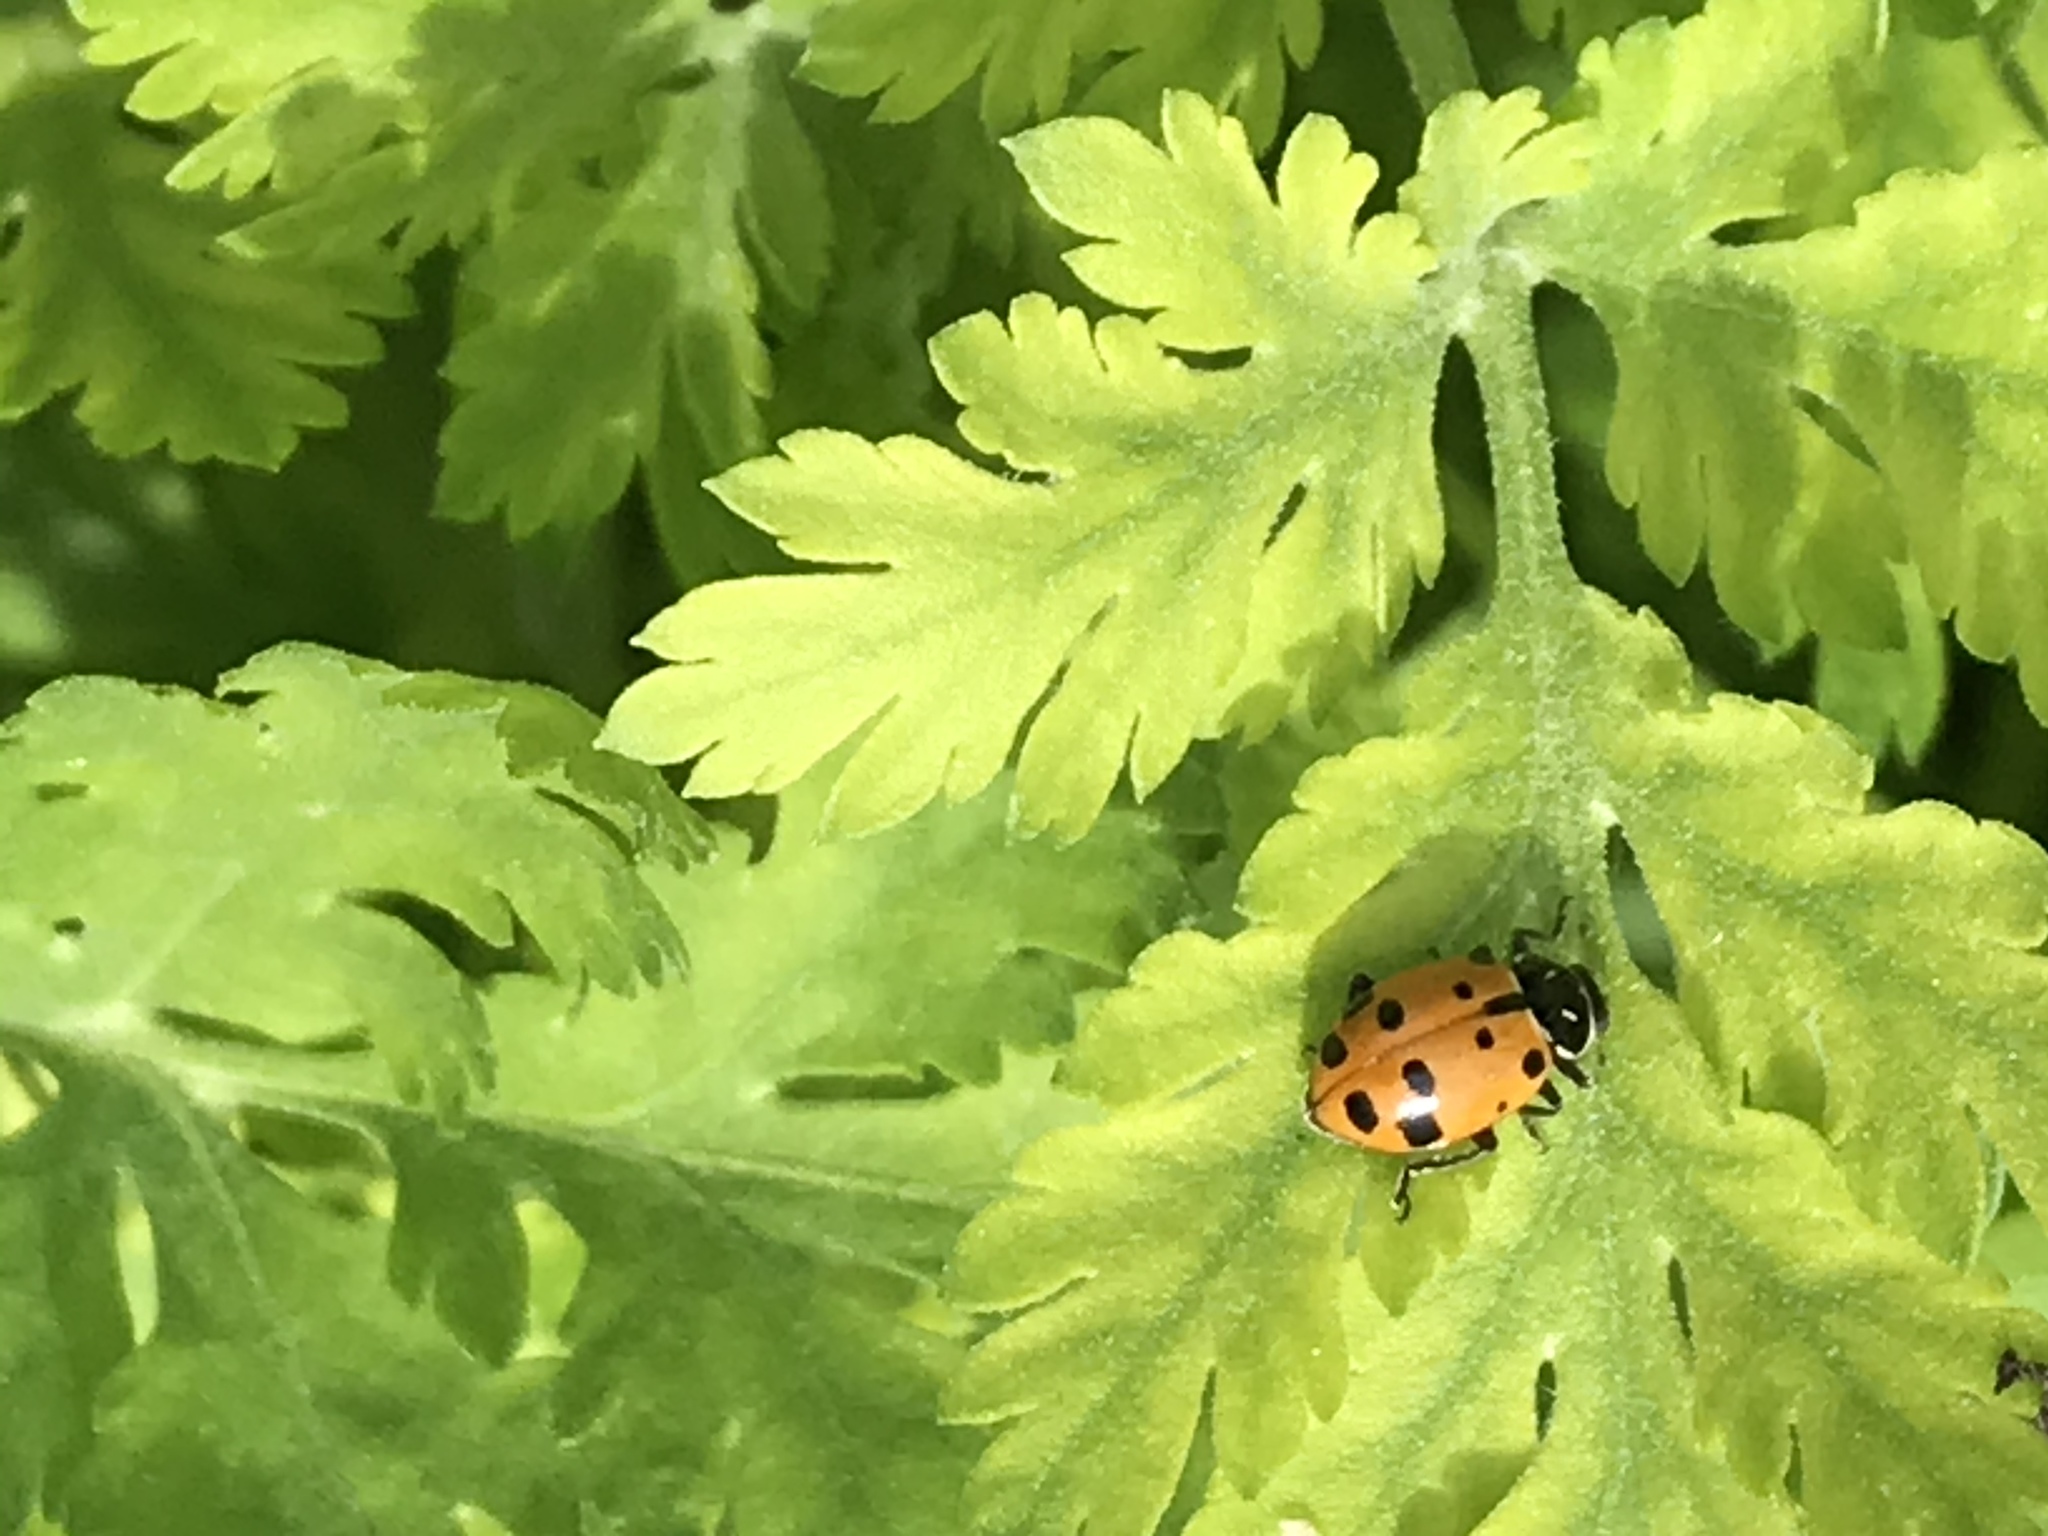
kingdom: Animalia
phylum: Arthropoda
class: Insecta
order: Coleoptera
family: Coccinellidae
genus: Hippodamia
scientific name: Hippodamia convergens
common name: Convergent lady beetle
